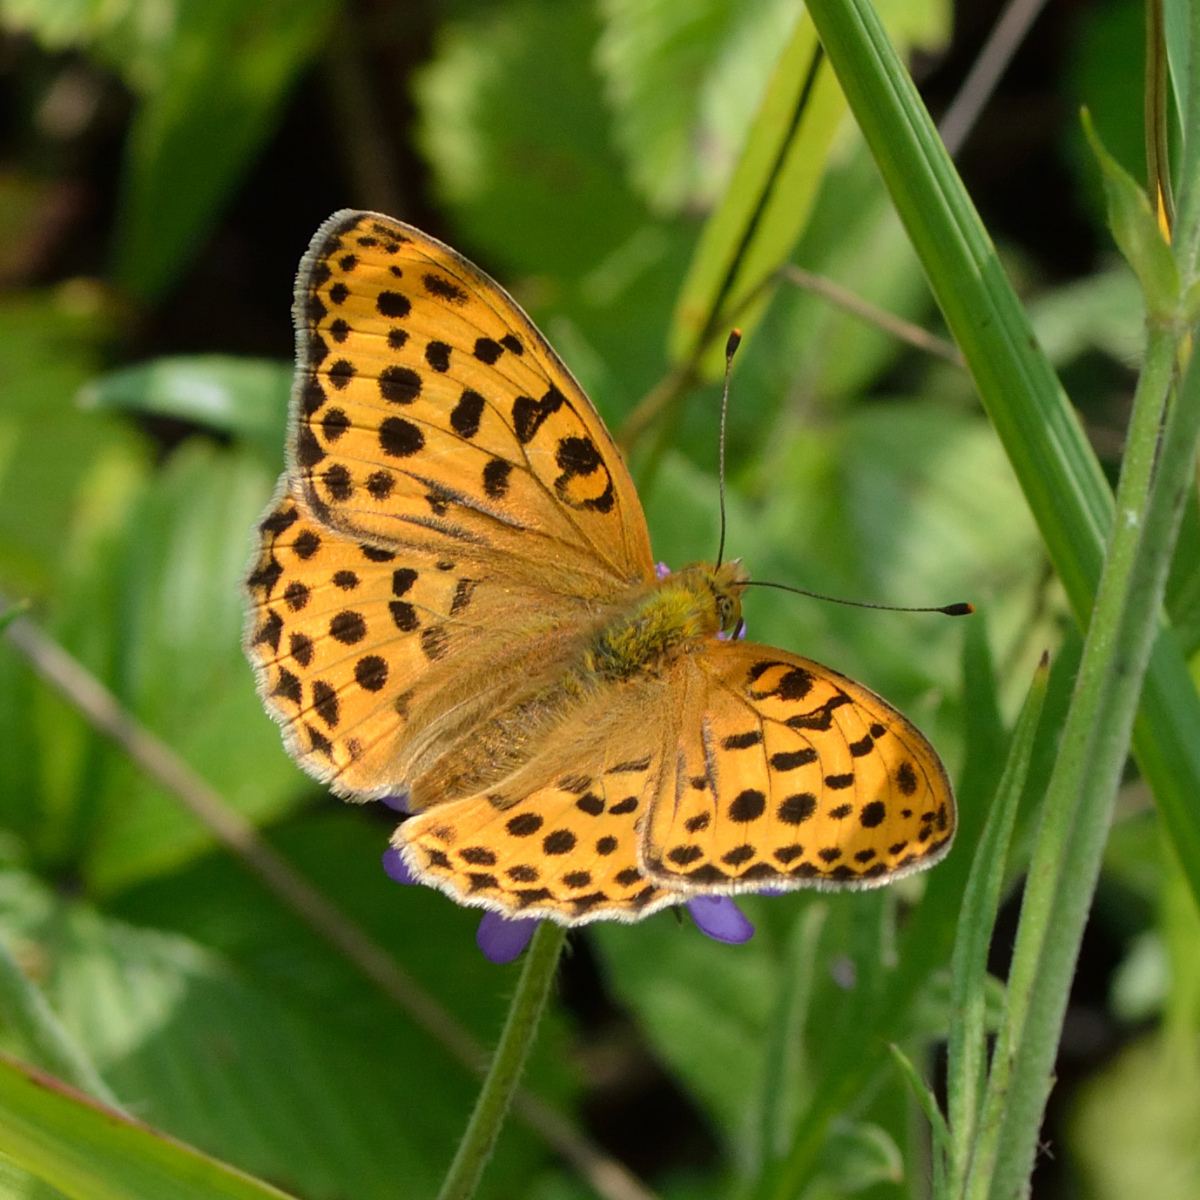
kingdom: Animalia
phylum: Arthropoda
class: Insecta
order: Lepidoptera
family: Nymphalidae
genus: Argyronome
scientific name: Argyronome laodice
